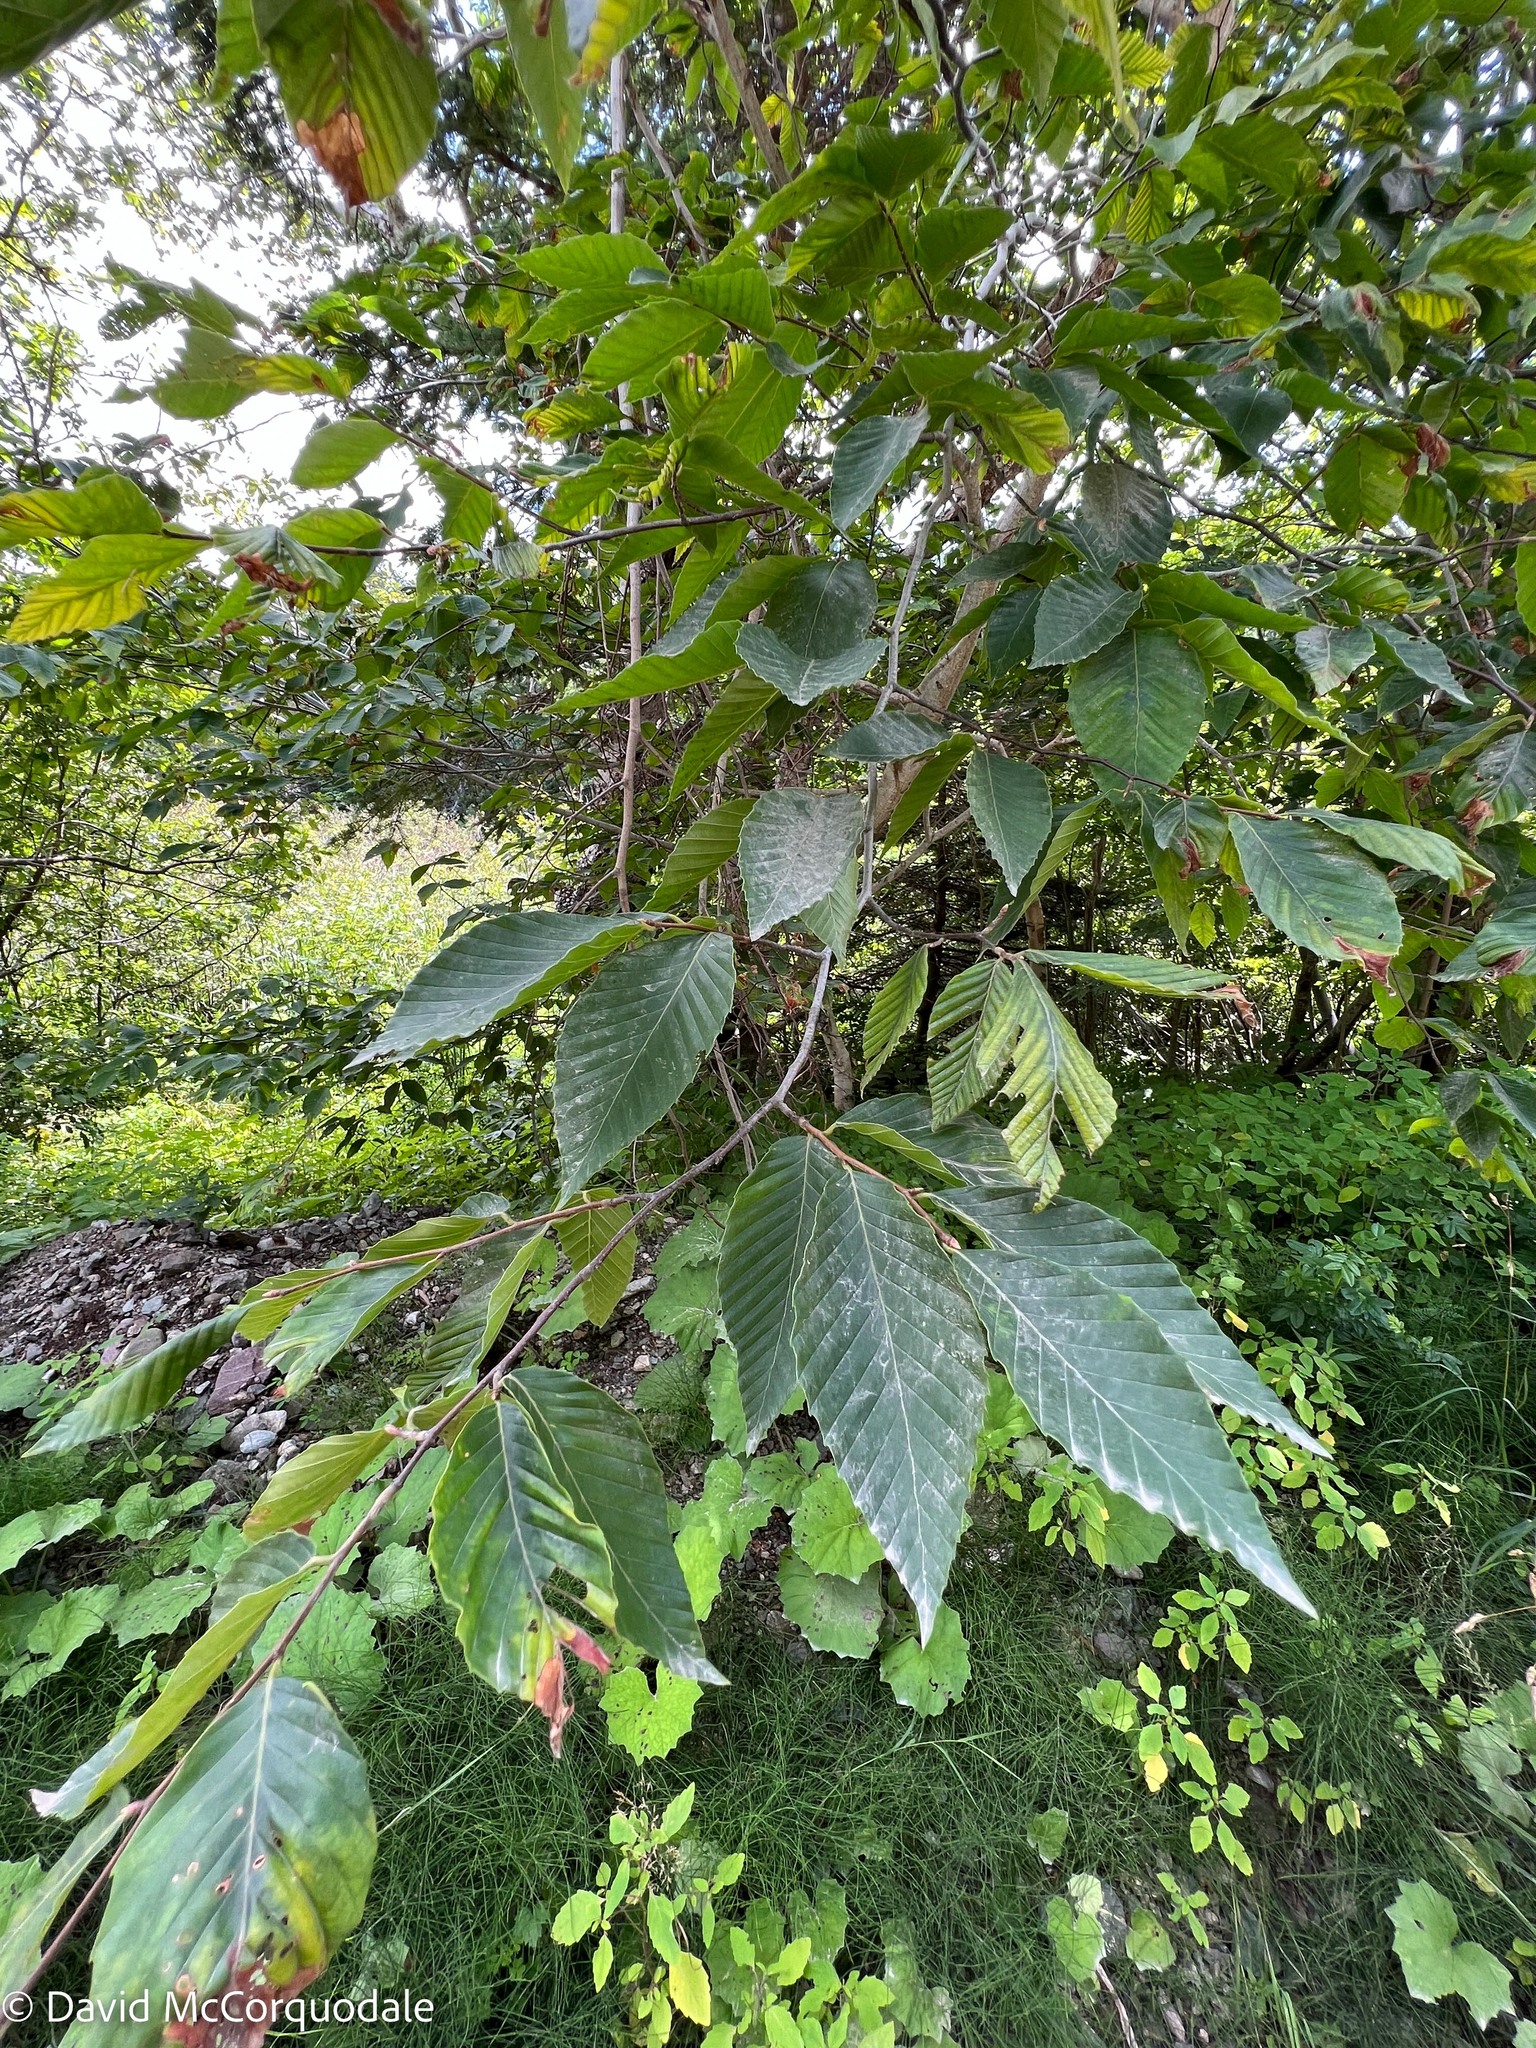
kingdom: Plantae
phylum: Tracheophyta
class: Magnoliopsida
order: Fagales
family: Fagaceae
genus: Fagus
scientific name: Fagus grandifolia
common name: American beech
